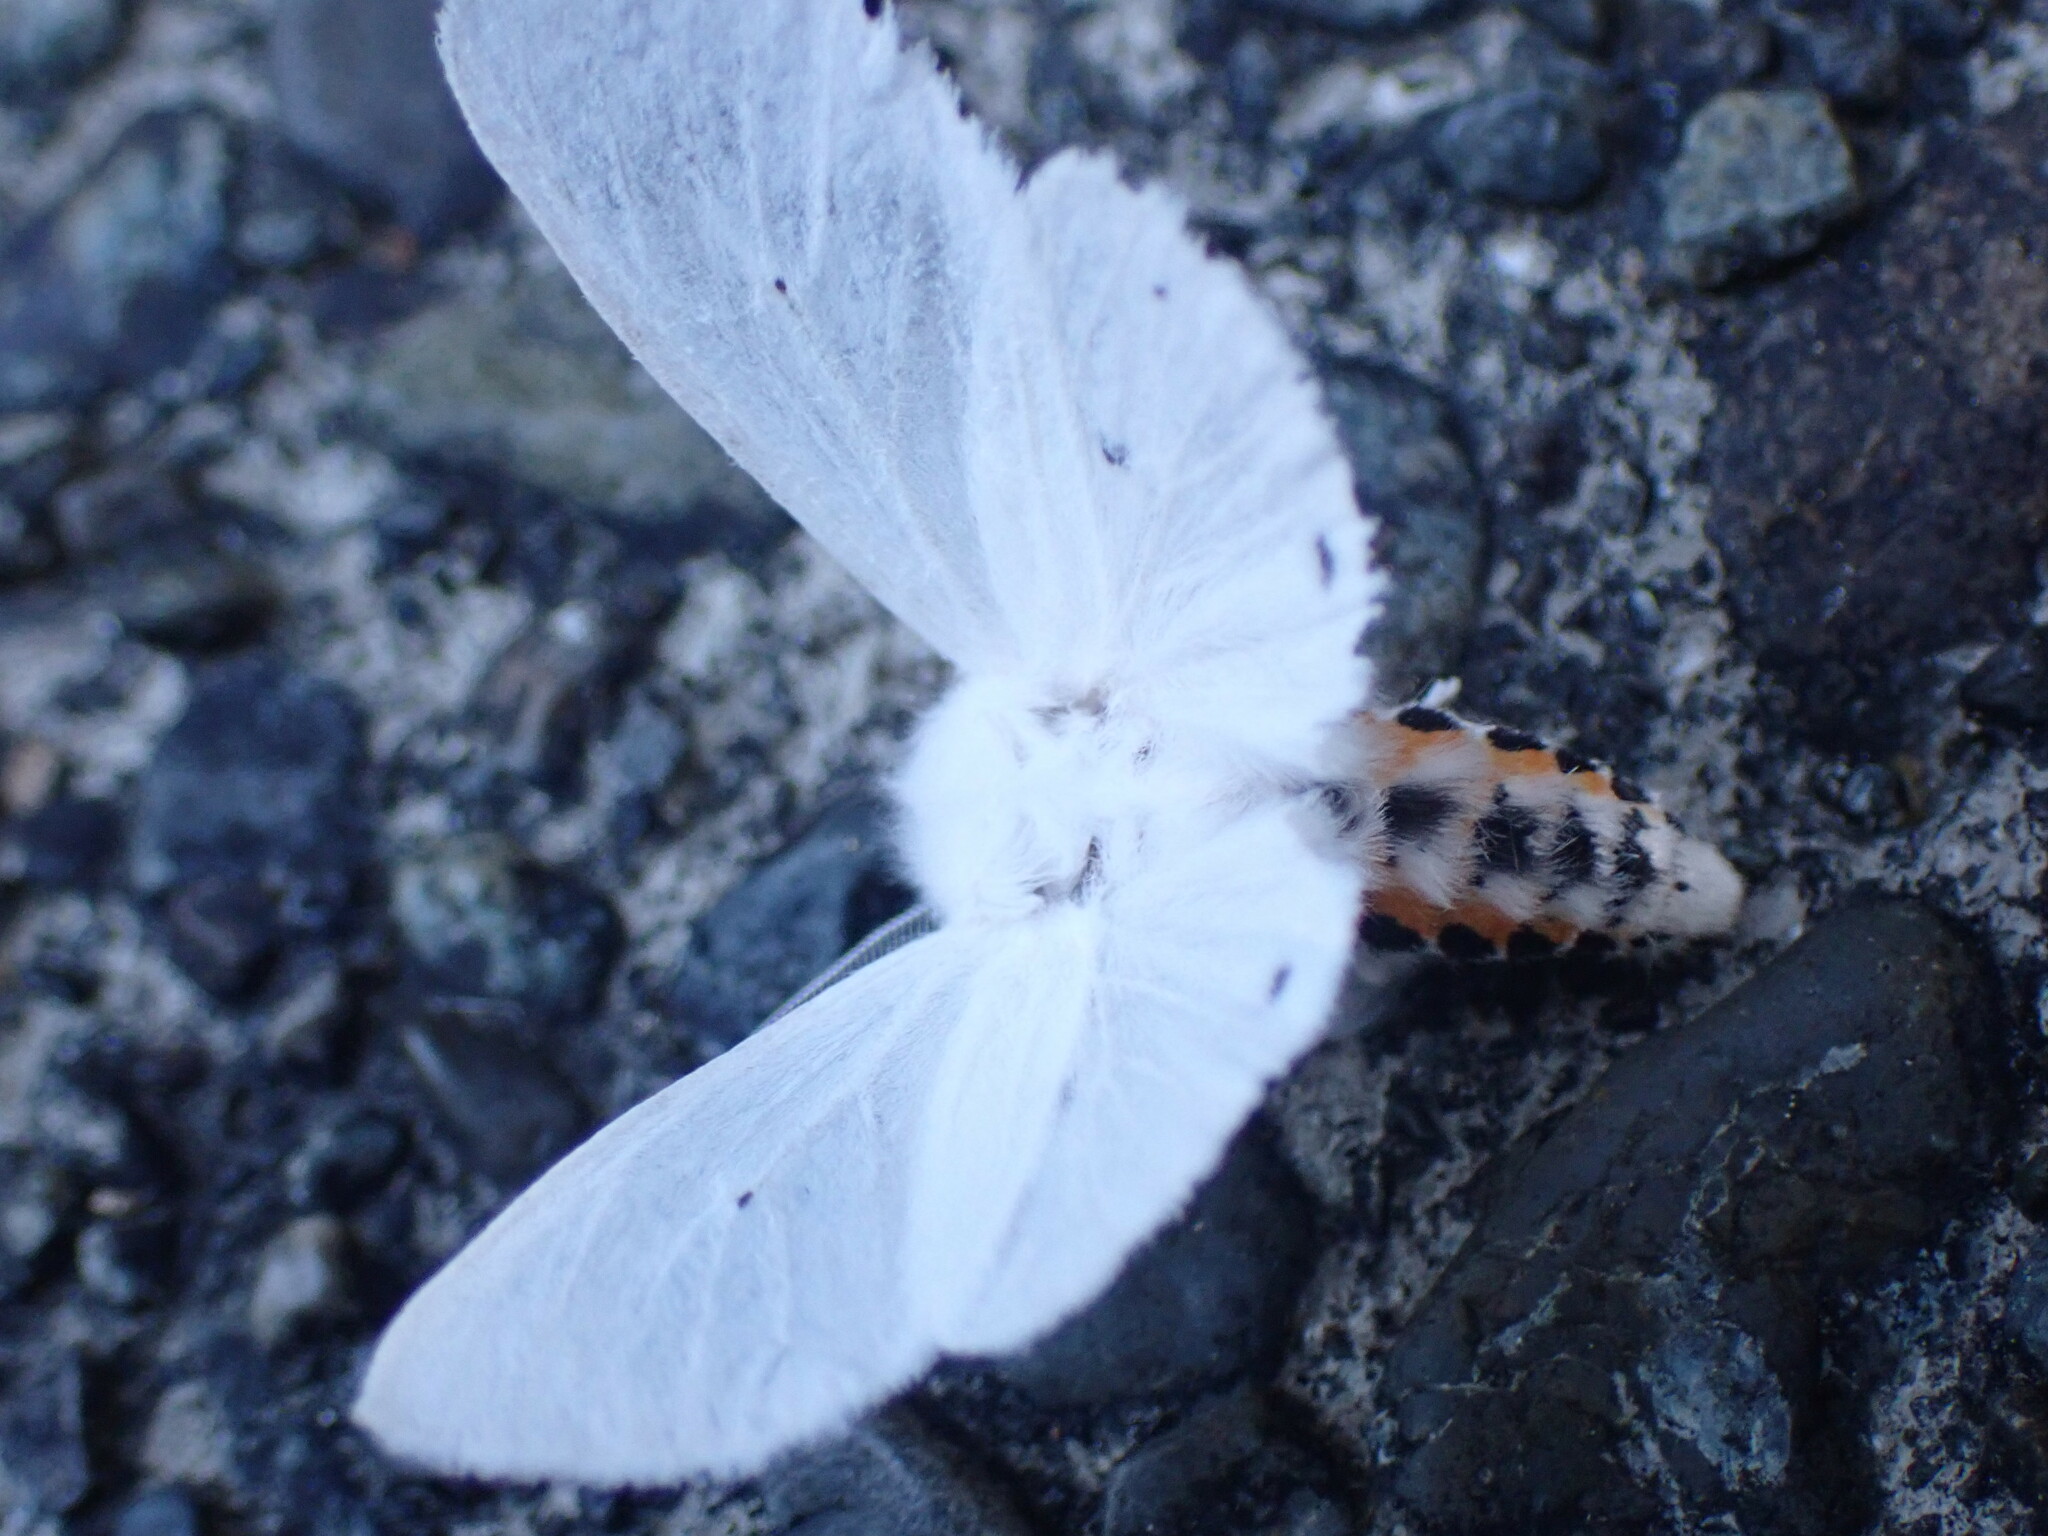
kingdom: Animalia
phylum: Arthropoda
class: Insecta
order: Lepidoptera
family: Erebidae
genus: Spilosoma
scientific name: Spilosoma virginica
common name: Virginia tiger moth
